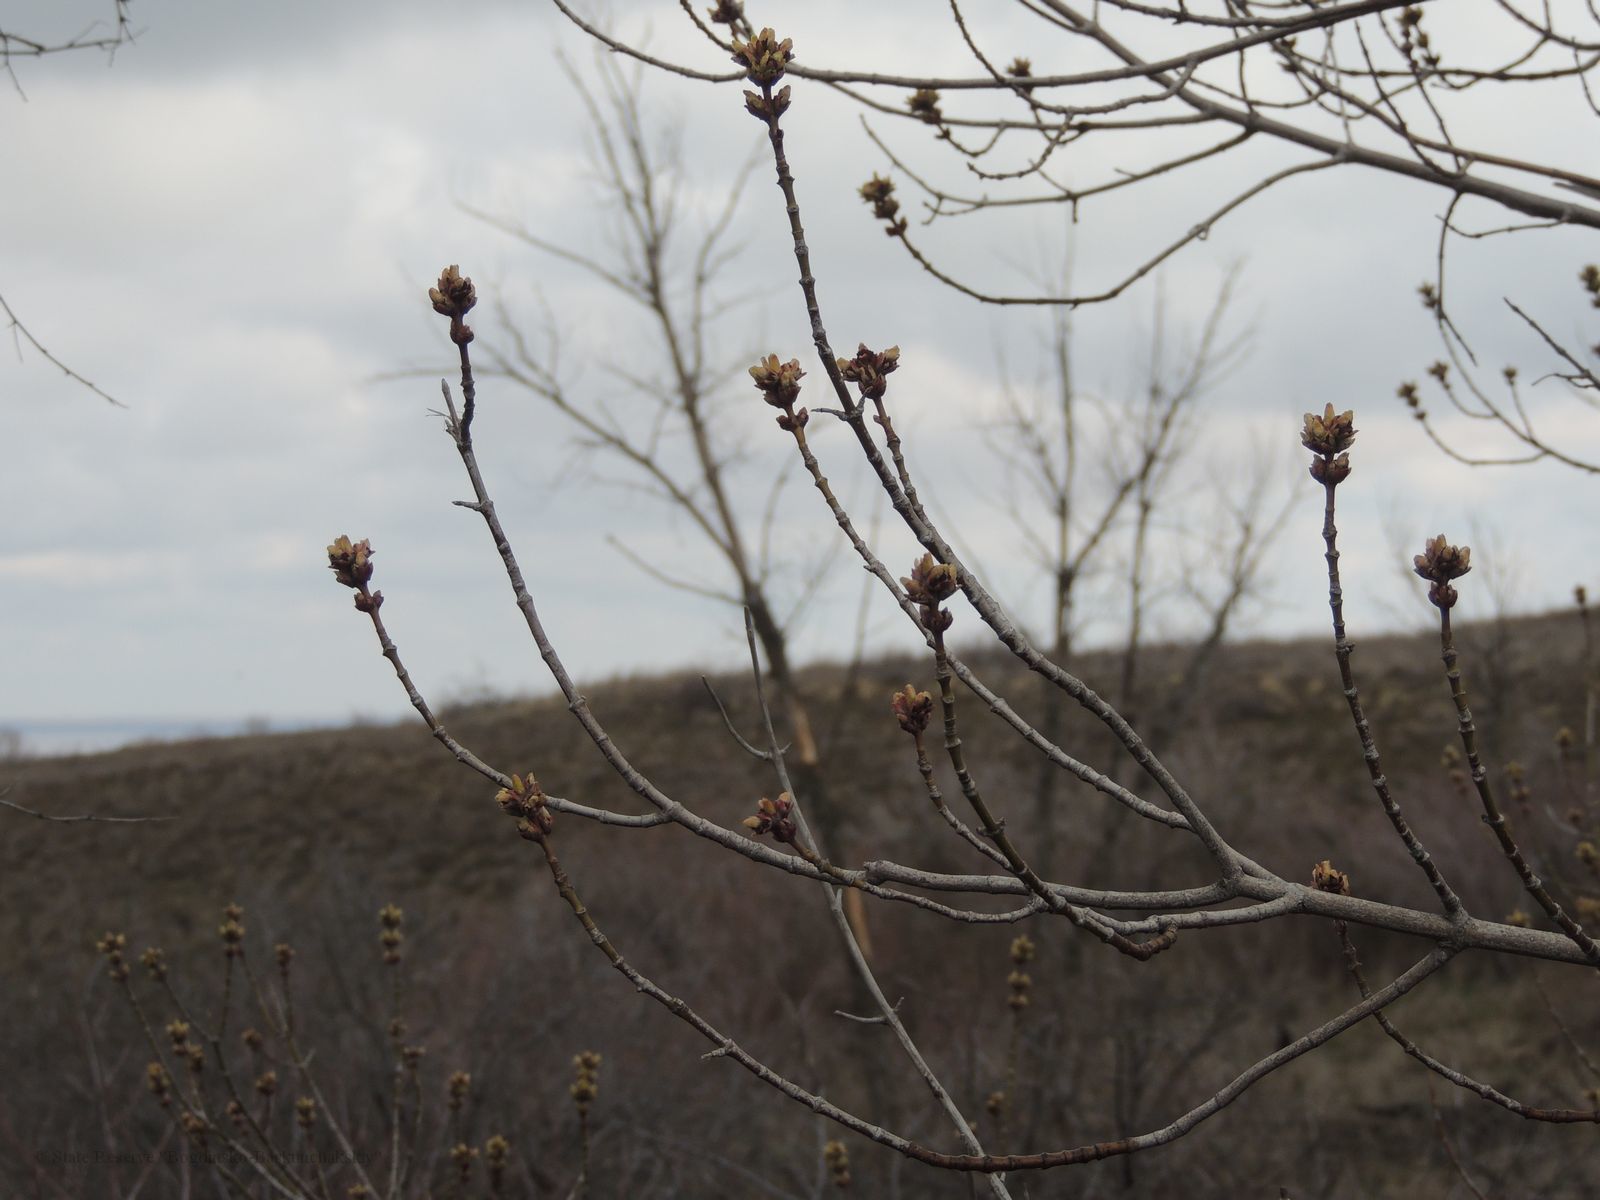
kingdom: Plantae
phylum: Tracheophyta
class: Magnoliopsida
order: Sapindales
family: Sapindaceae
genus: Acer
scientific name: Acer negundo
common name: Ashleaf maple
